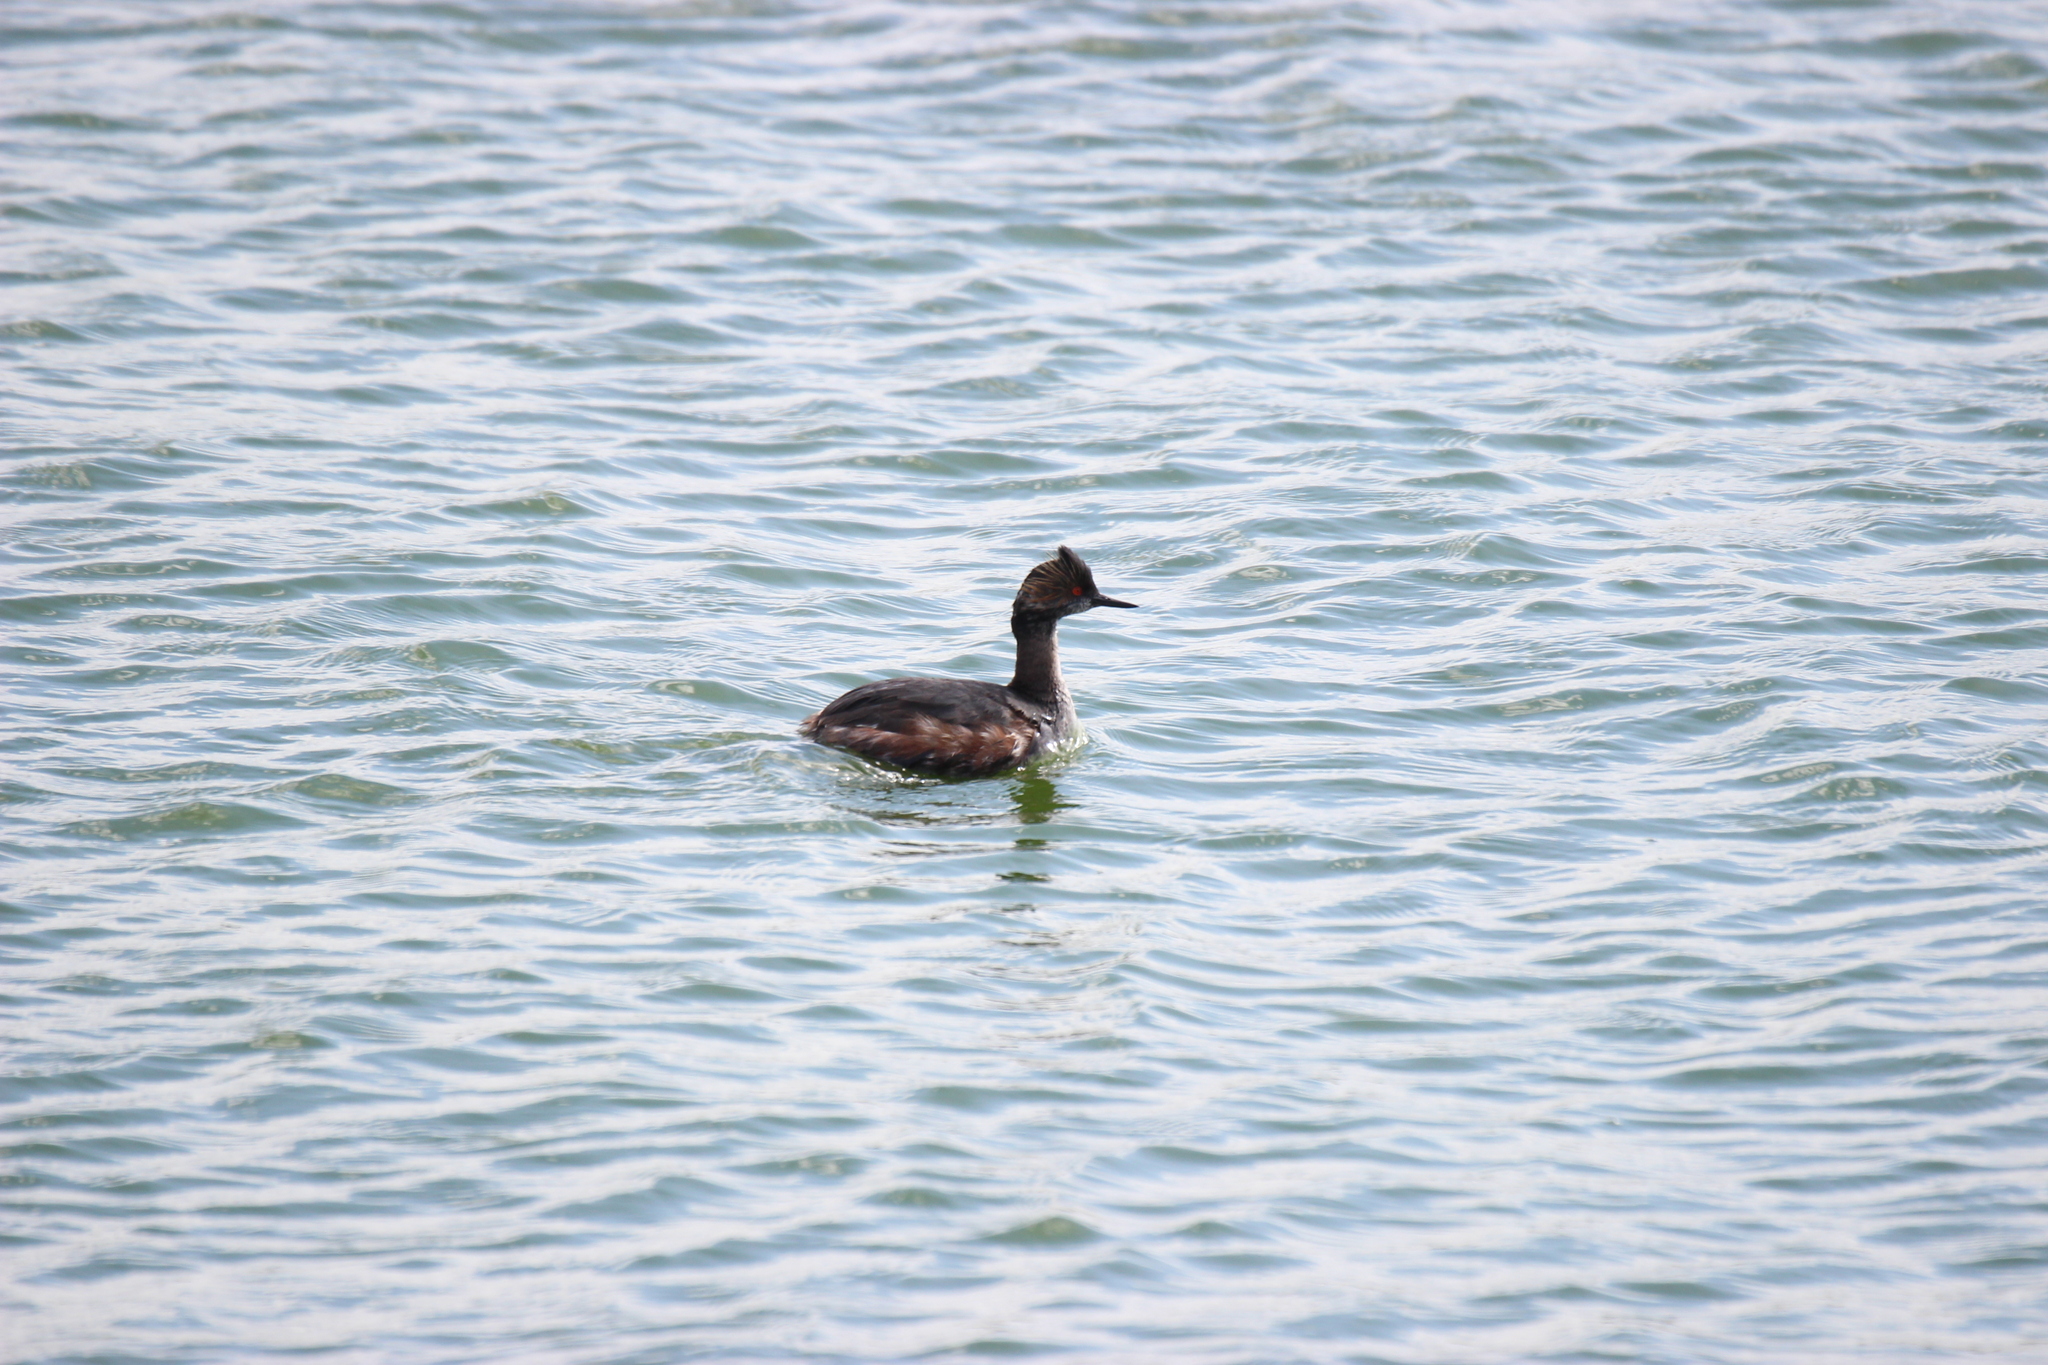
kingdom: Animalia
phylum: Chordata
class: Aves
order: Podicipediformes
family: Podicipedidae
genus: Podiceps
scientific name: Podiceps nigricollis
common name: Black-necked grebe
